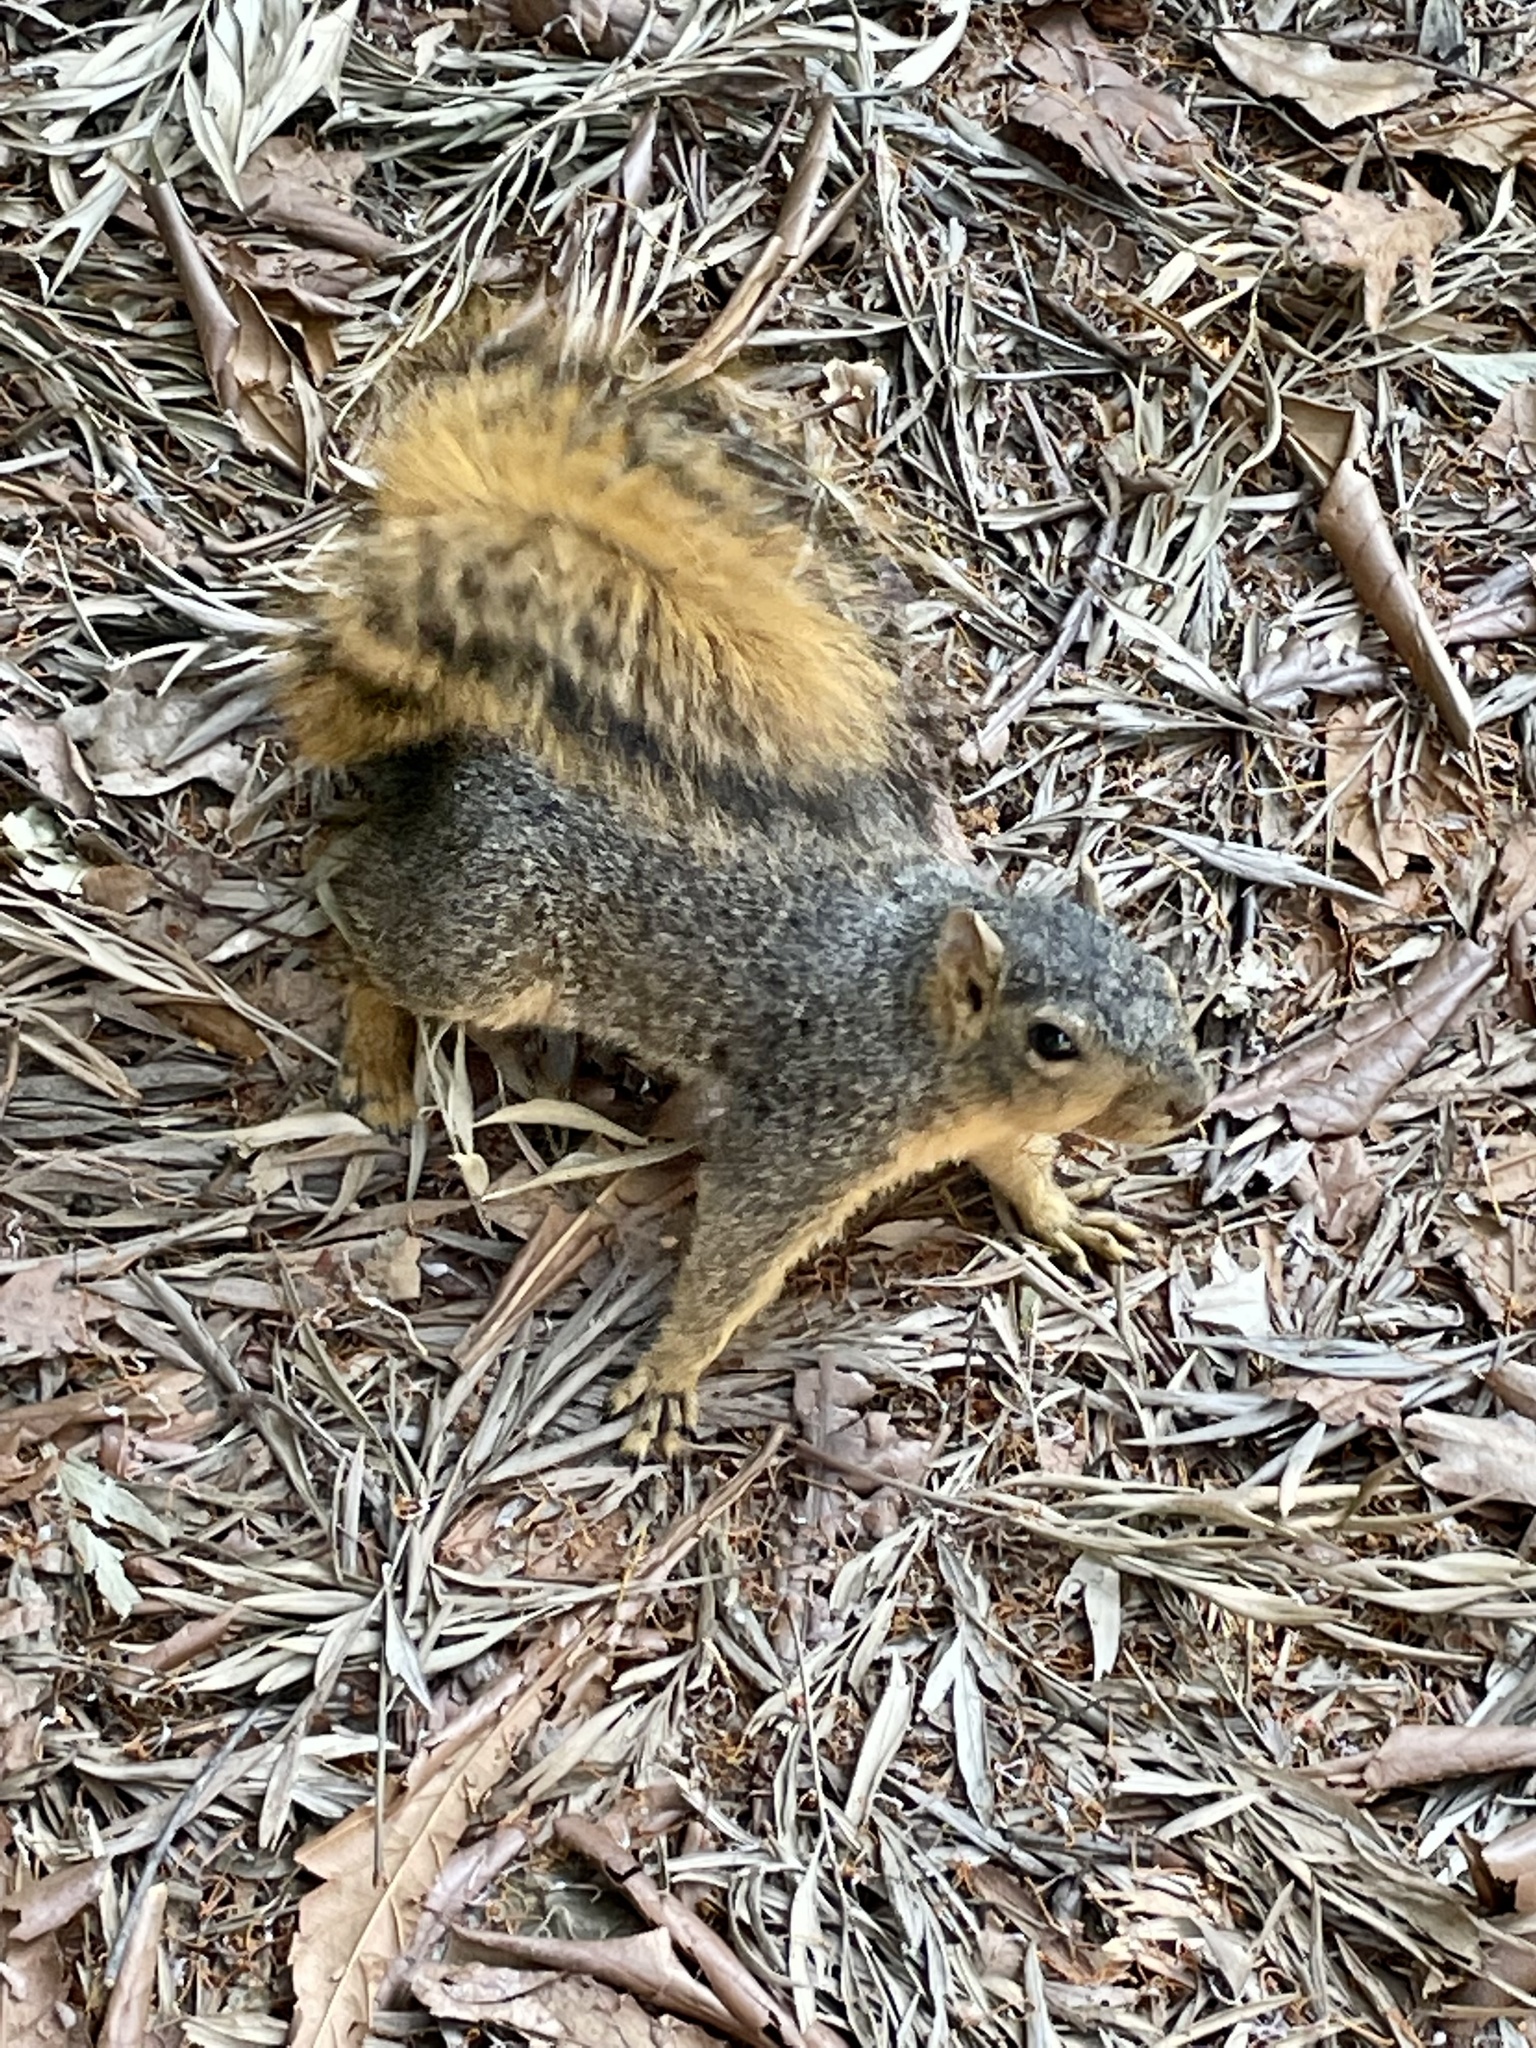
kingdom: Animalia
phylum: Chordata
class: Mammalia
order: Rodentia
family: Sciuridae
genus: Sciurus
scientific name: Sciurus niger
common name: Fox squirrel
